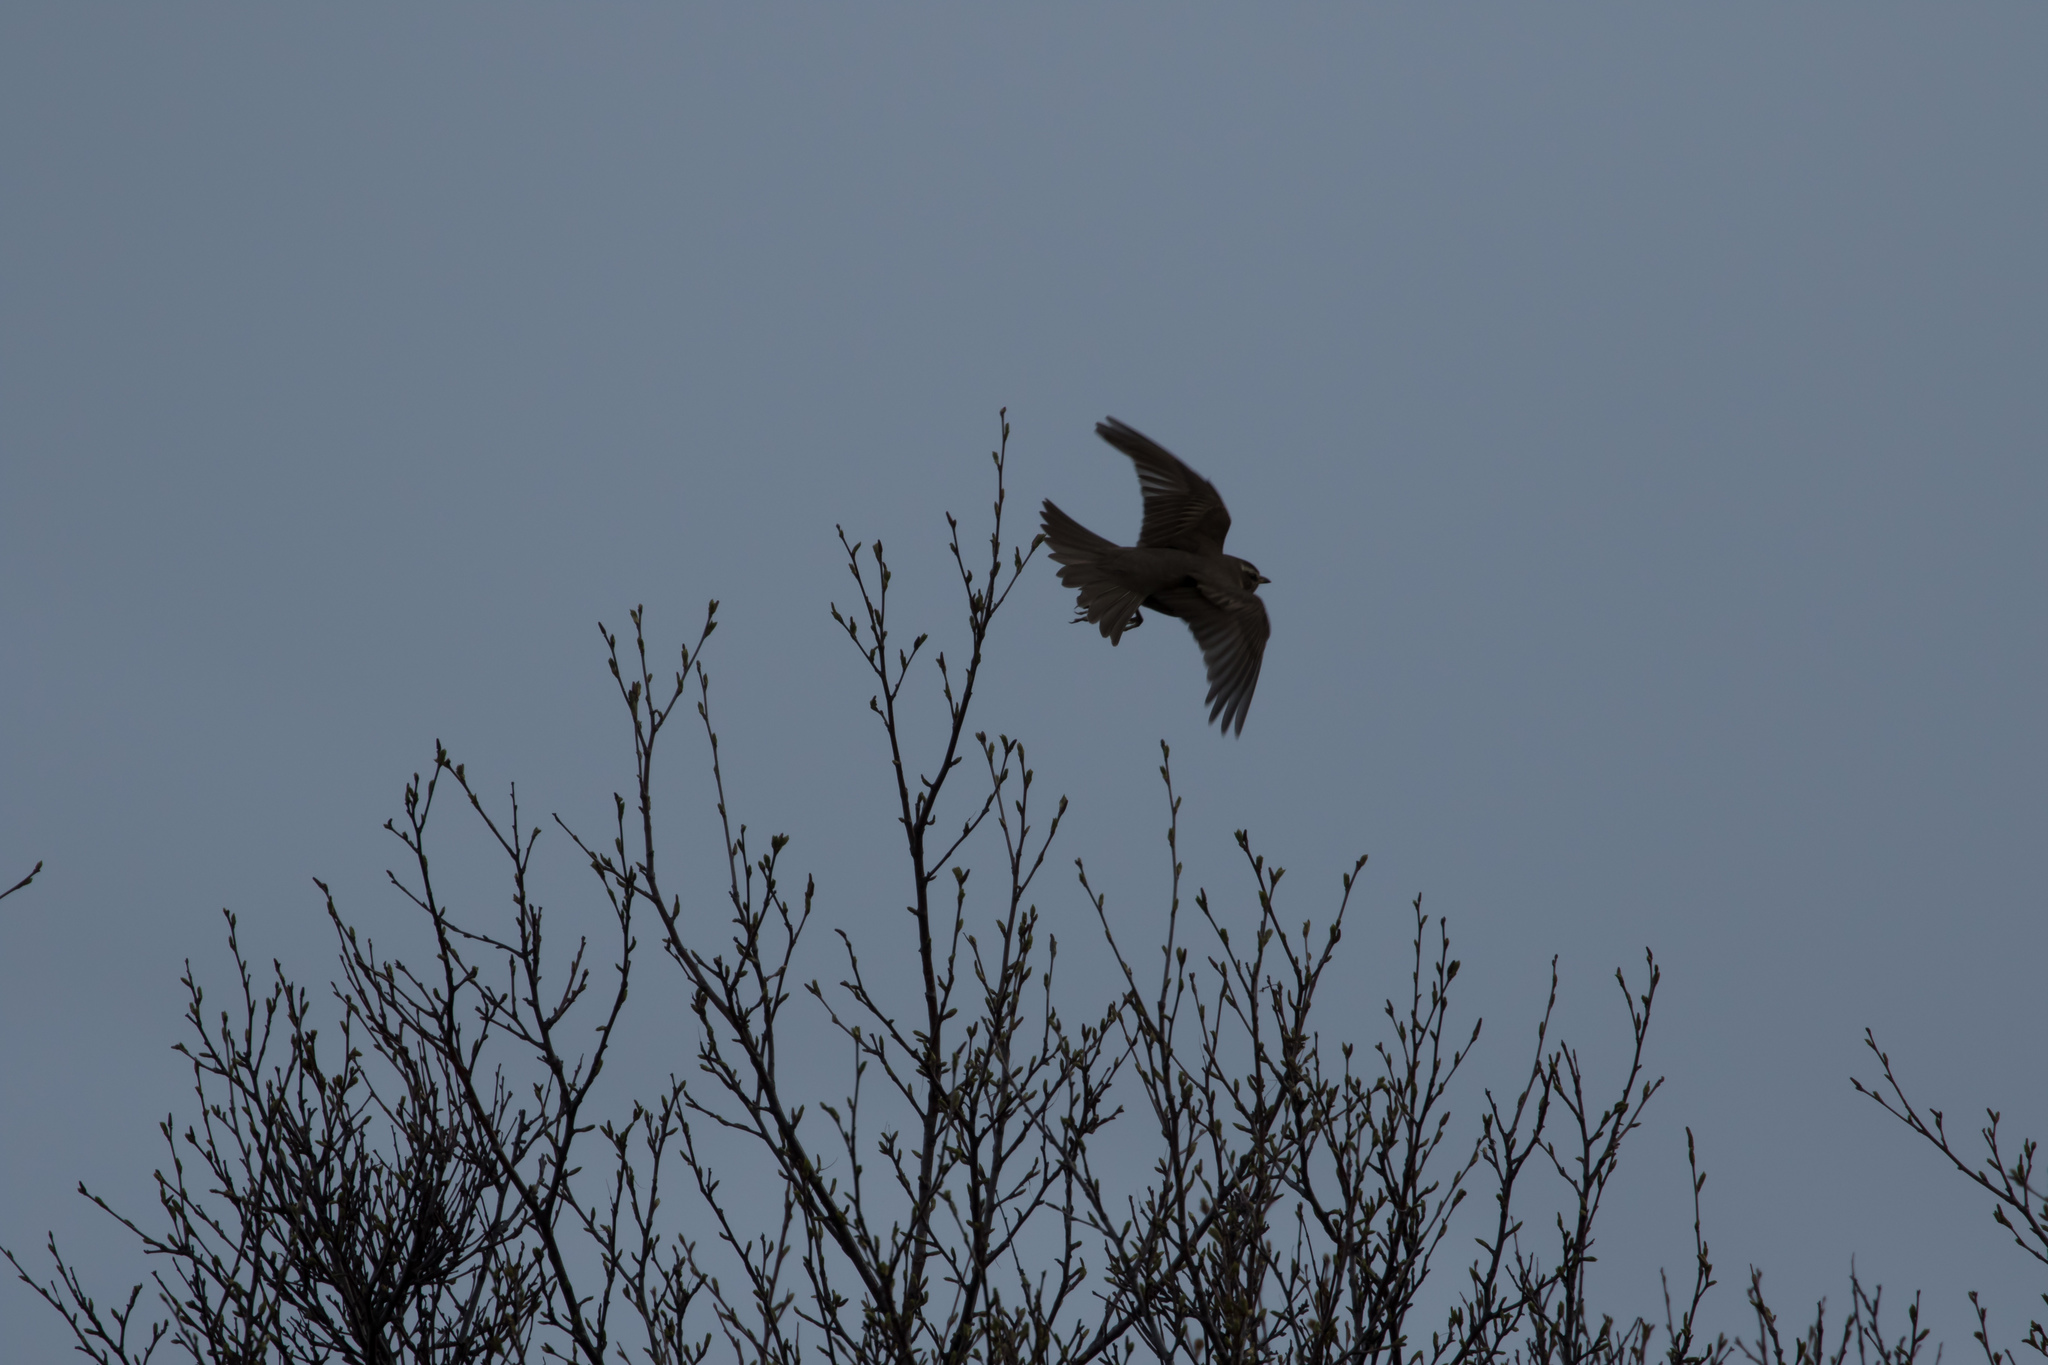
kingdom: Animalia
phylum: Chordata
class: Aves
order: Passeriformes
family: Turdidae
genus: Turdus
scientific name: Turdus iliacus
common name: Redwing
